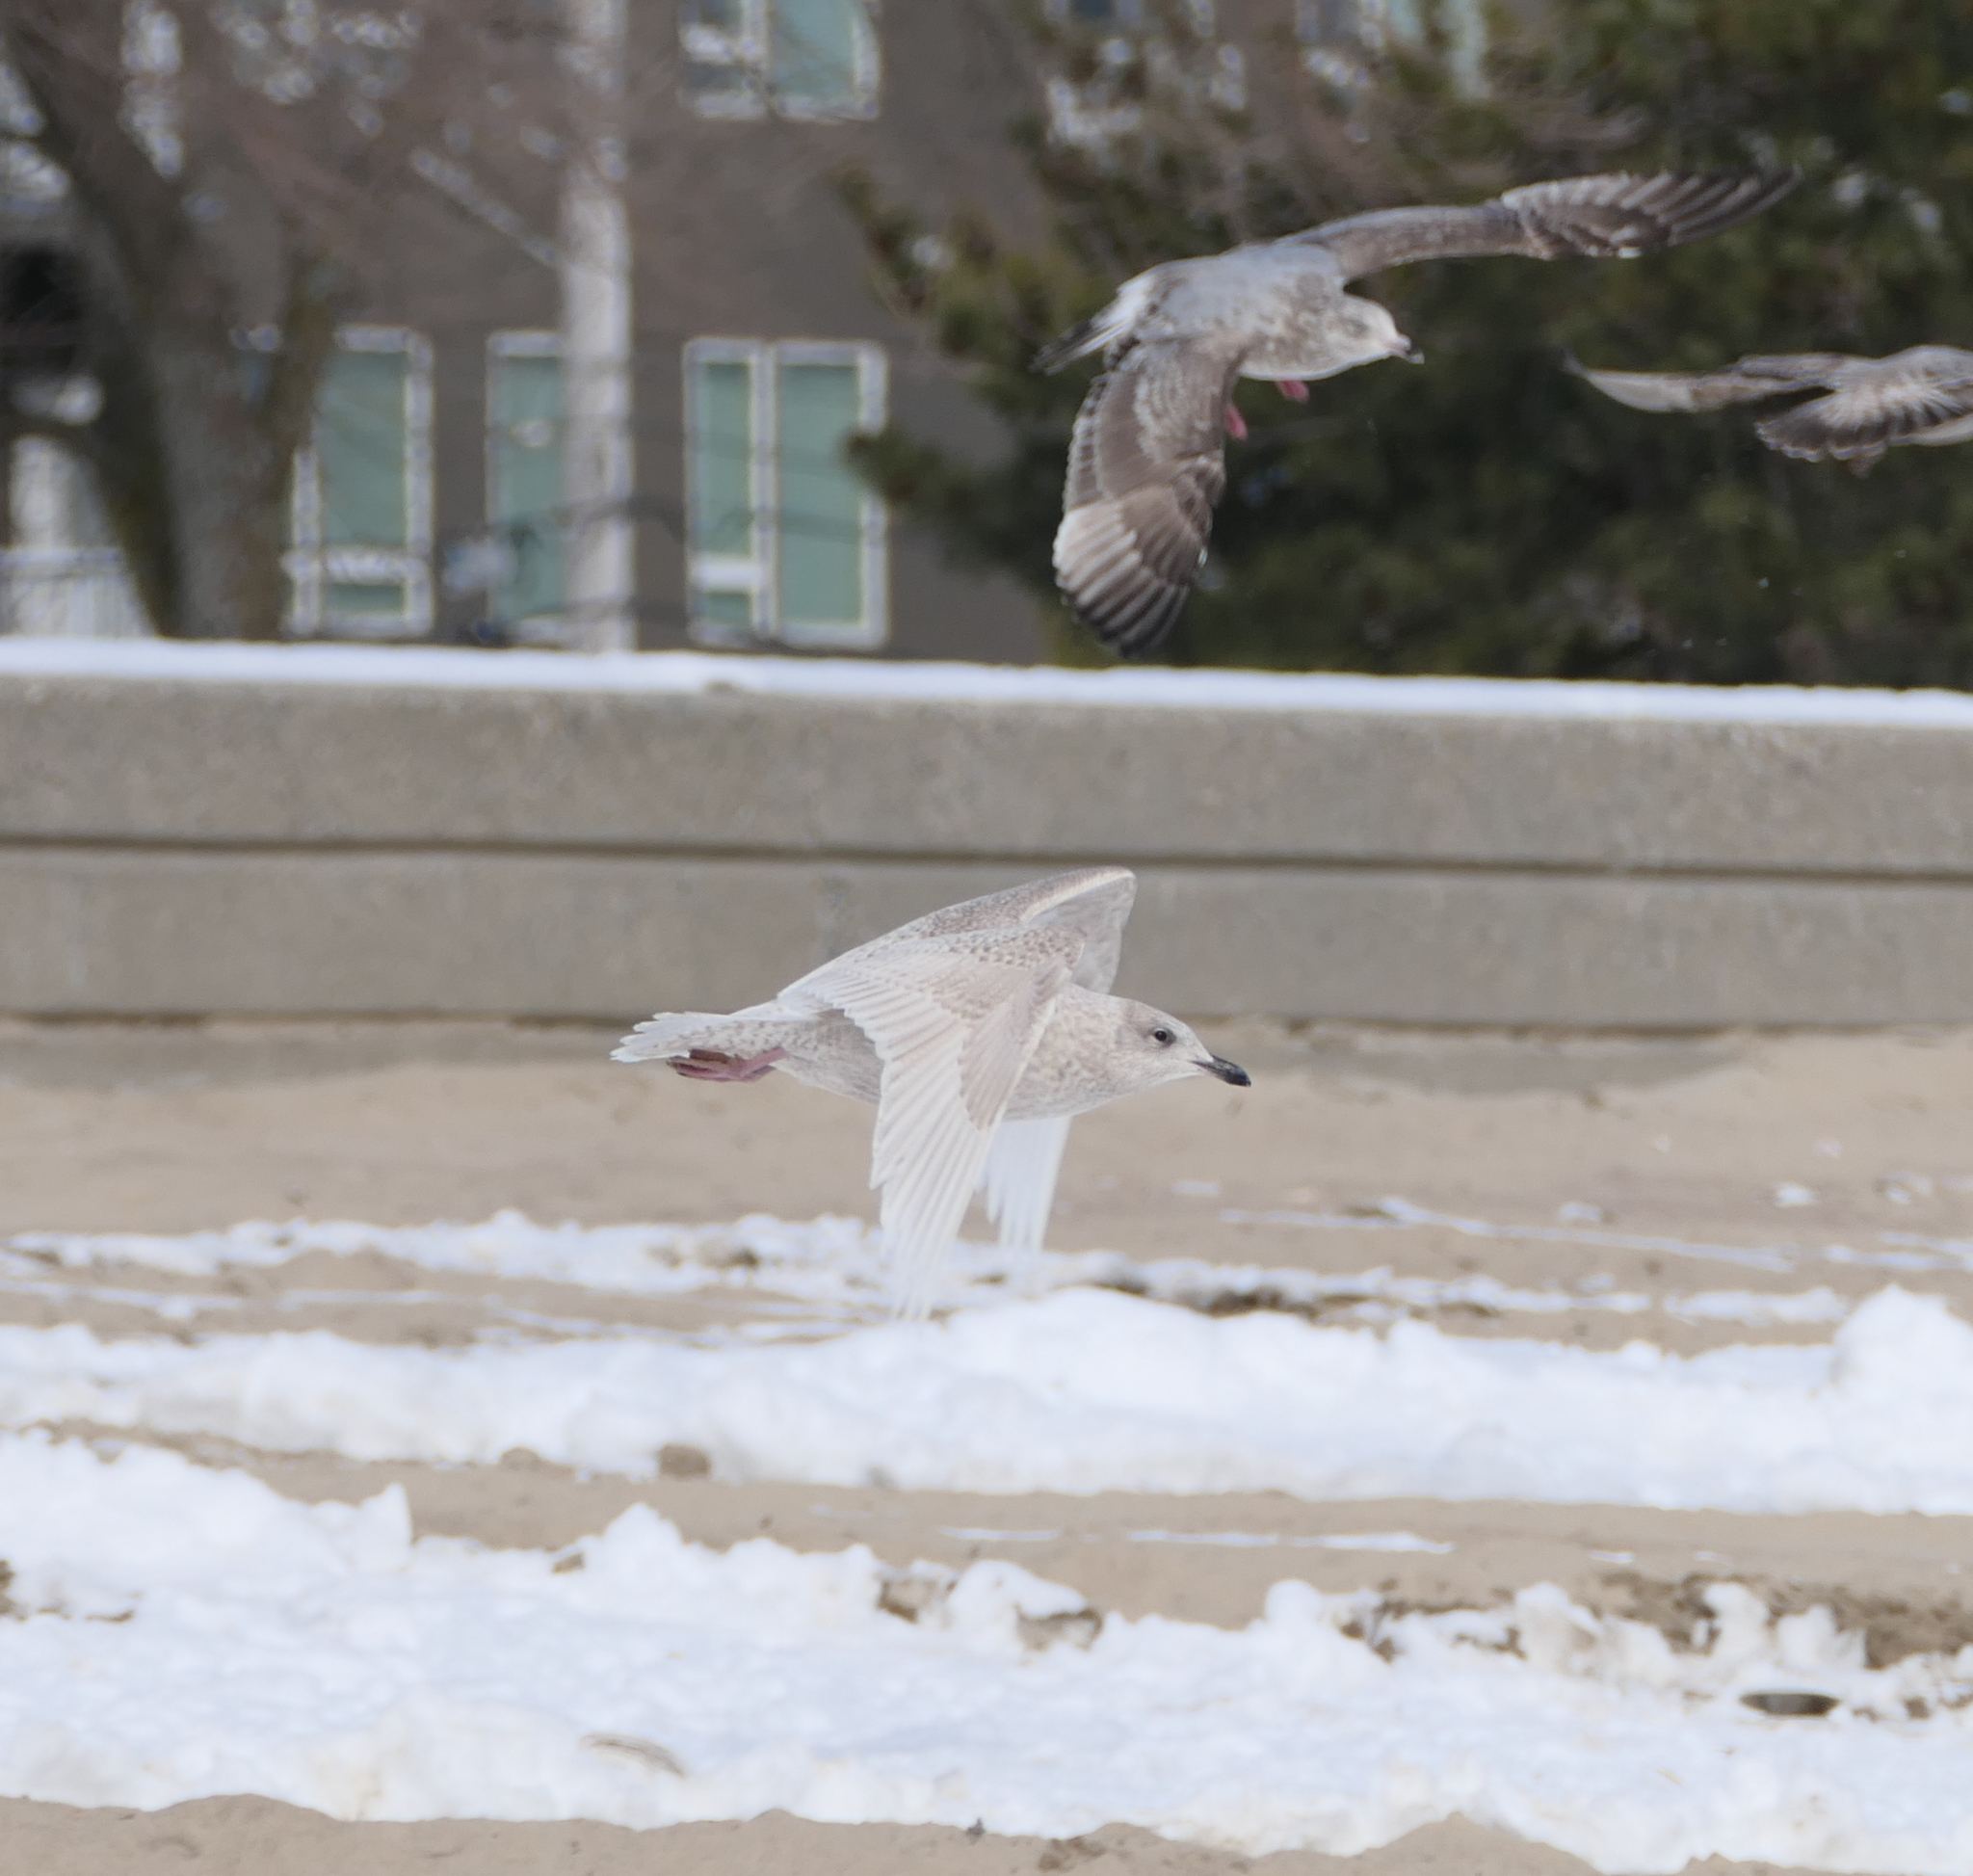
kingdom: Animalia
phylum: Chordata
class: Aves
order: Charadriiformes
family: Laridae
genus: Larus
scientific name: Larus glaucoides
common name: Iceland gull
